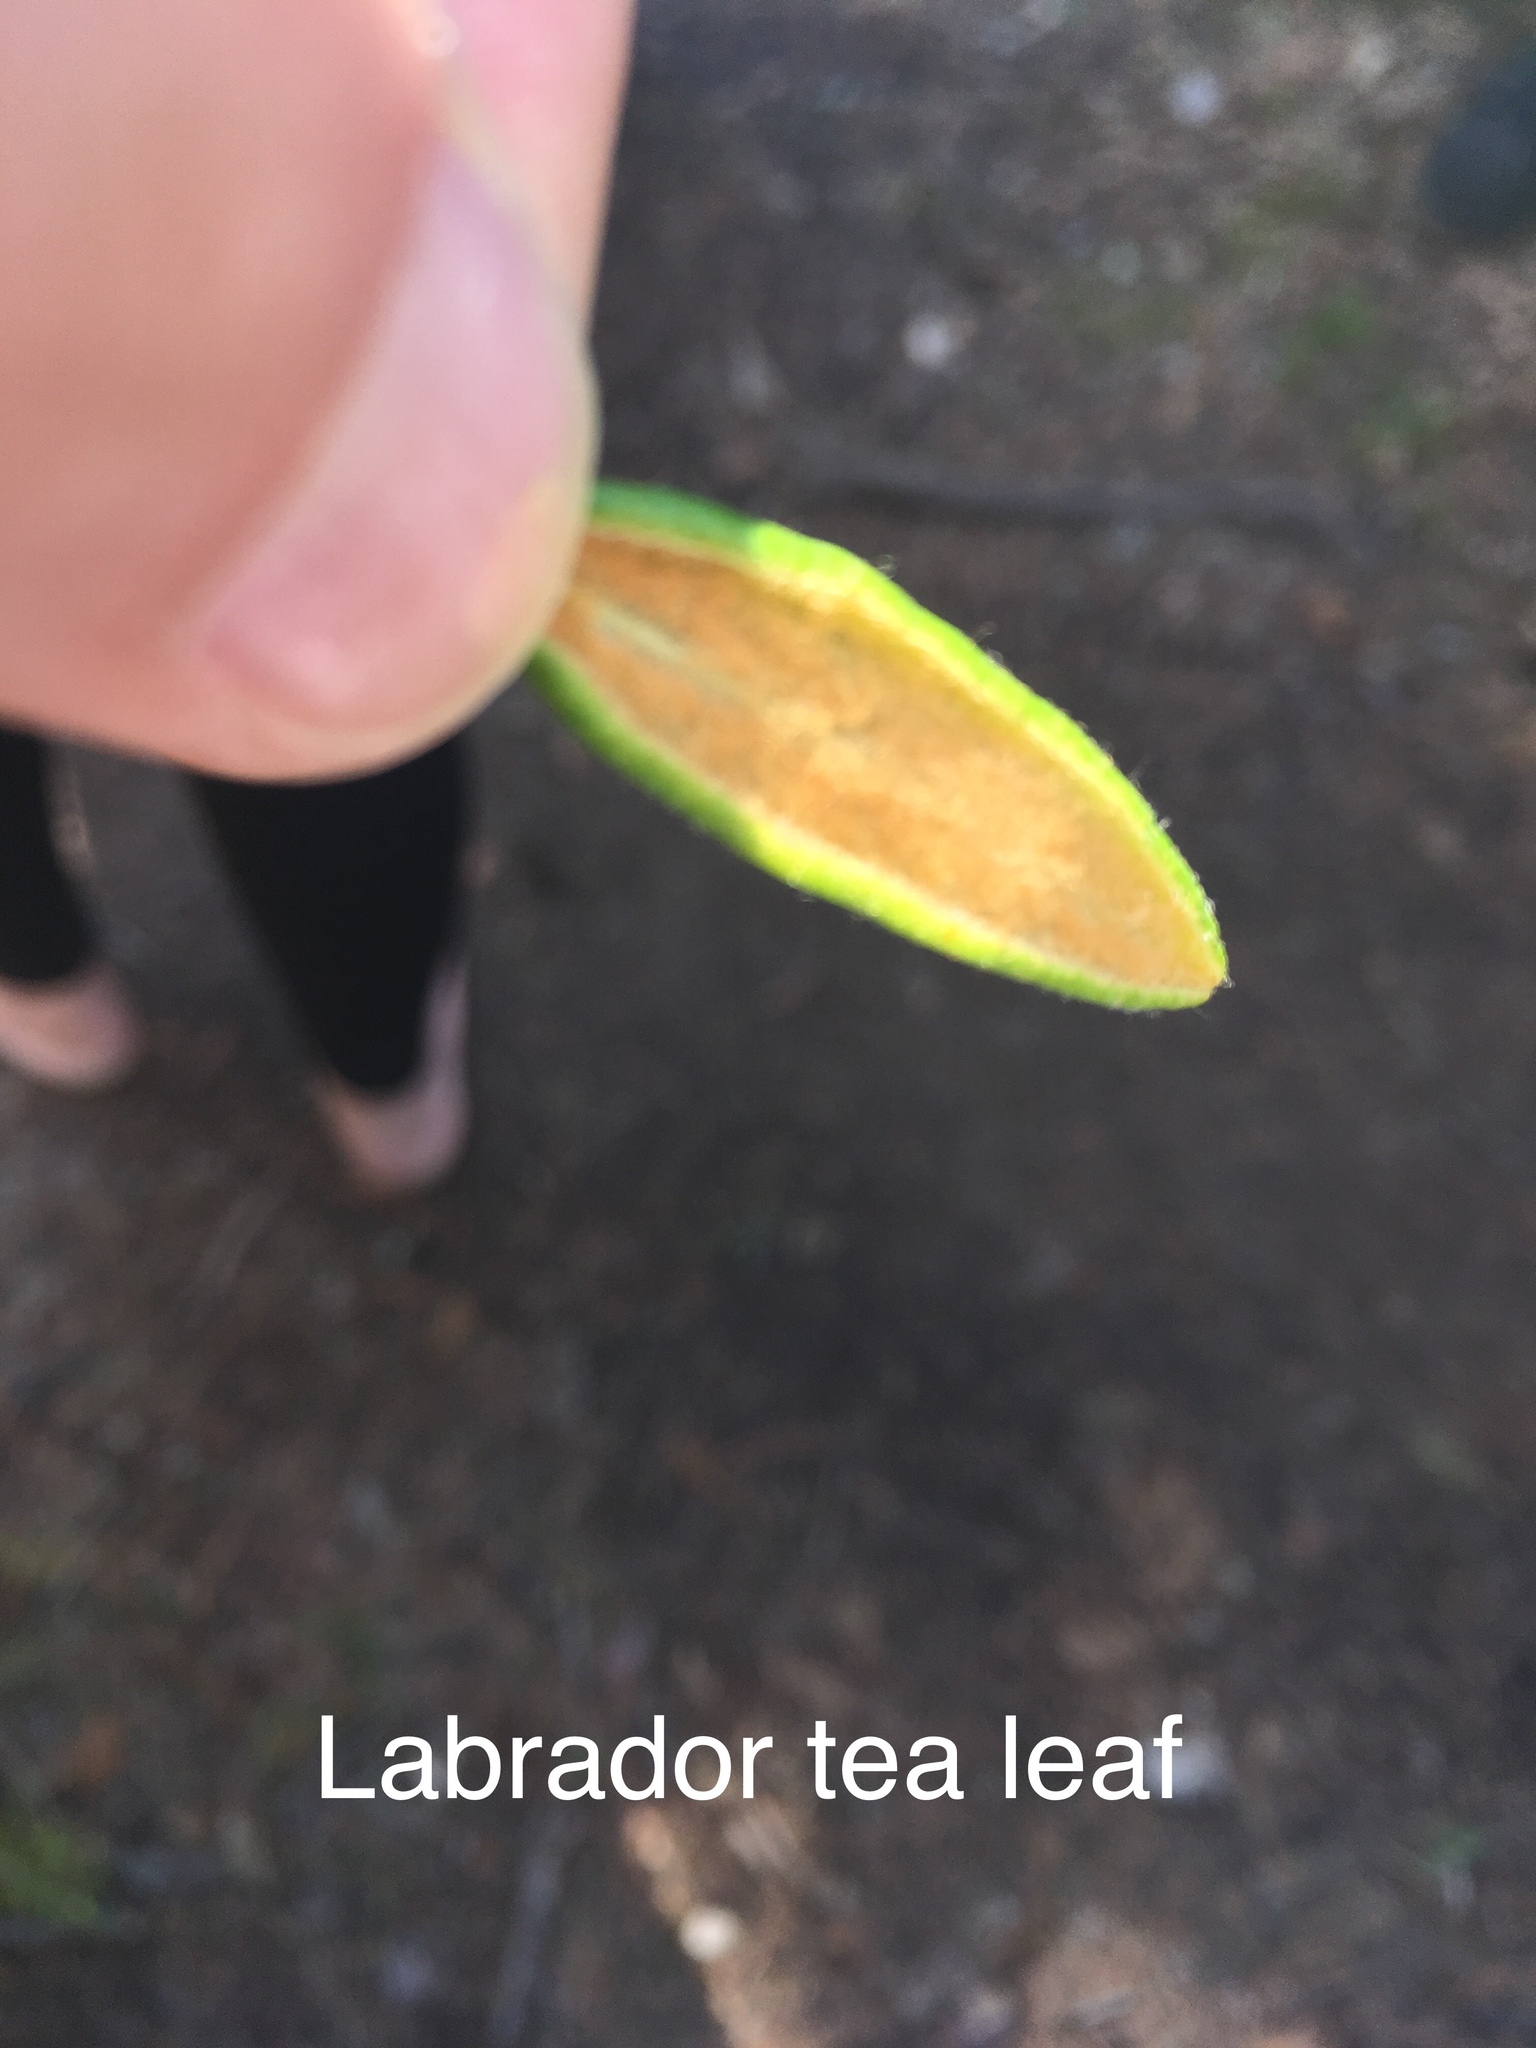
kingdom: Plantae
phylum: Tracheophyta
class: Magnoliopsida
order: Ericales
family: Ericaceae
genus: Rhododendron
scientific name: Rhododendron groenlandicum
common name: Bog labrador tea
